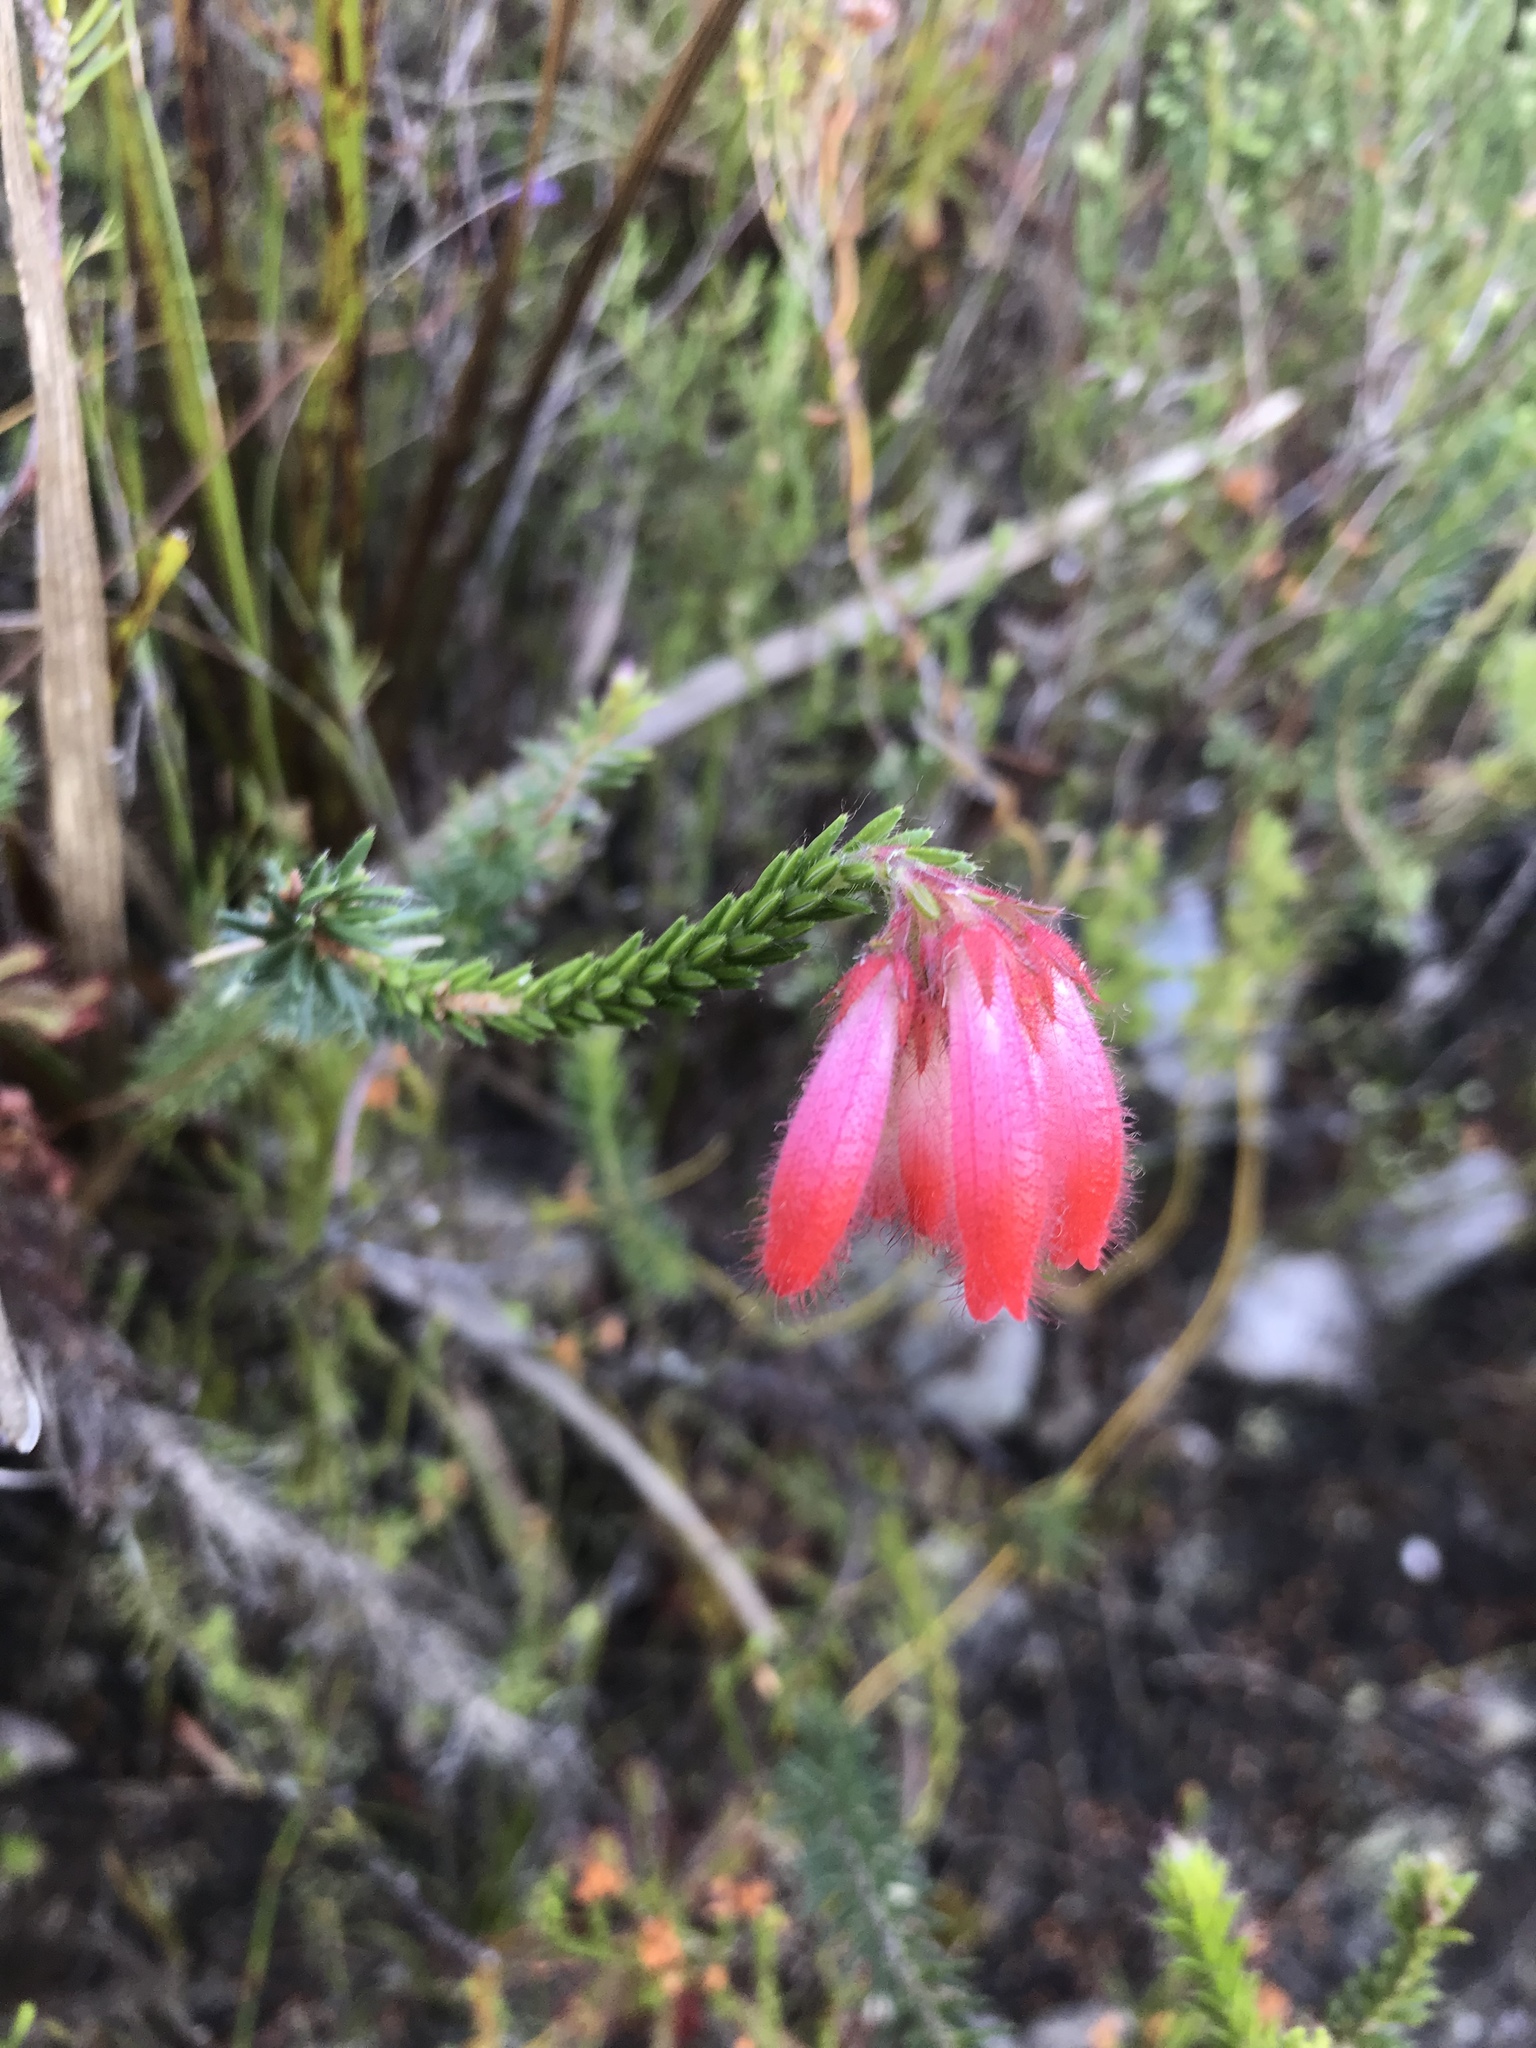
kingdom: Plantae
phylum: Tracheophyta
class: Magnoliopsida
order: Ericales
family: Ericaceae
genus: Erica
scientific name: Erica cerinthoides
